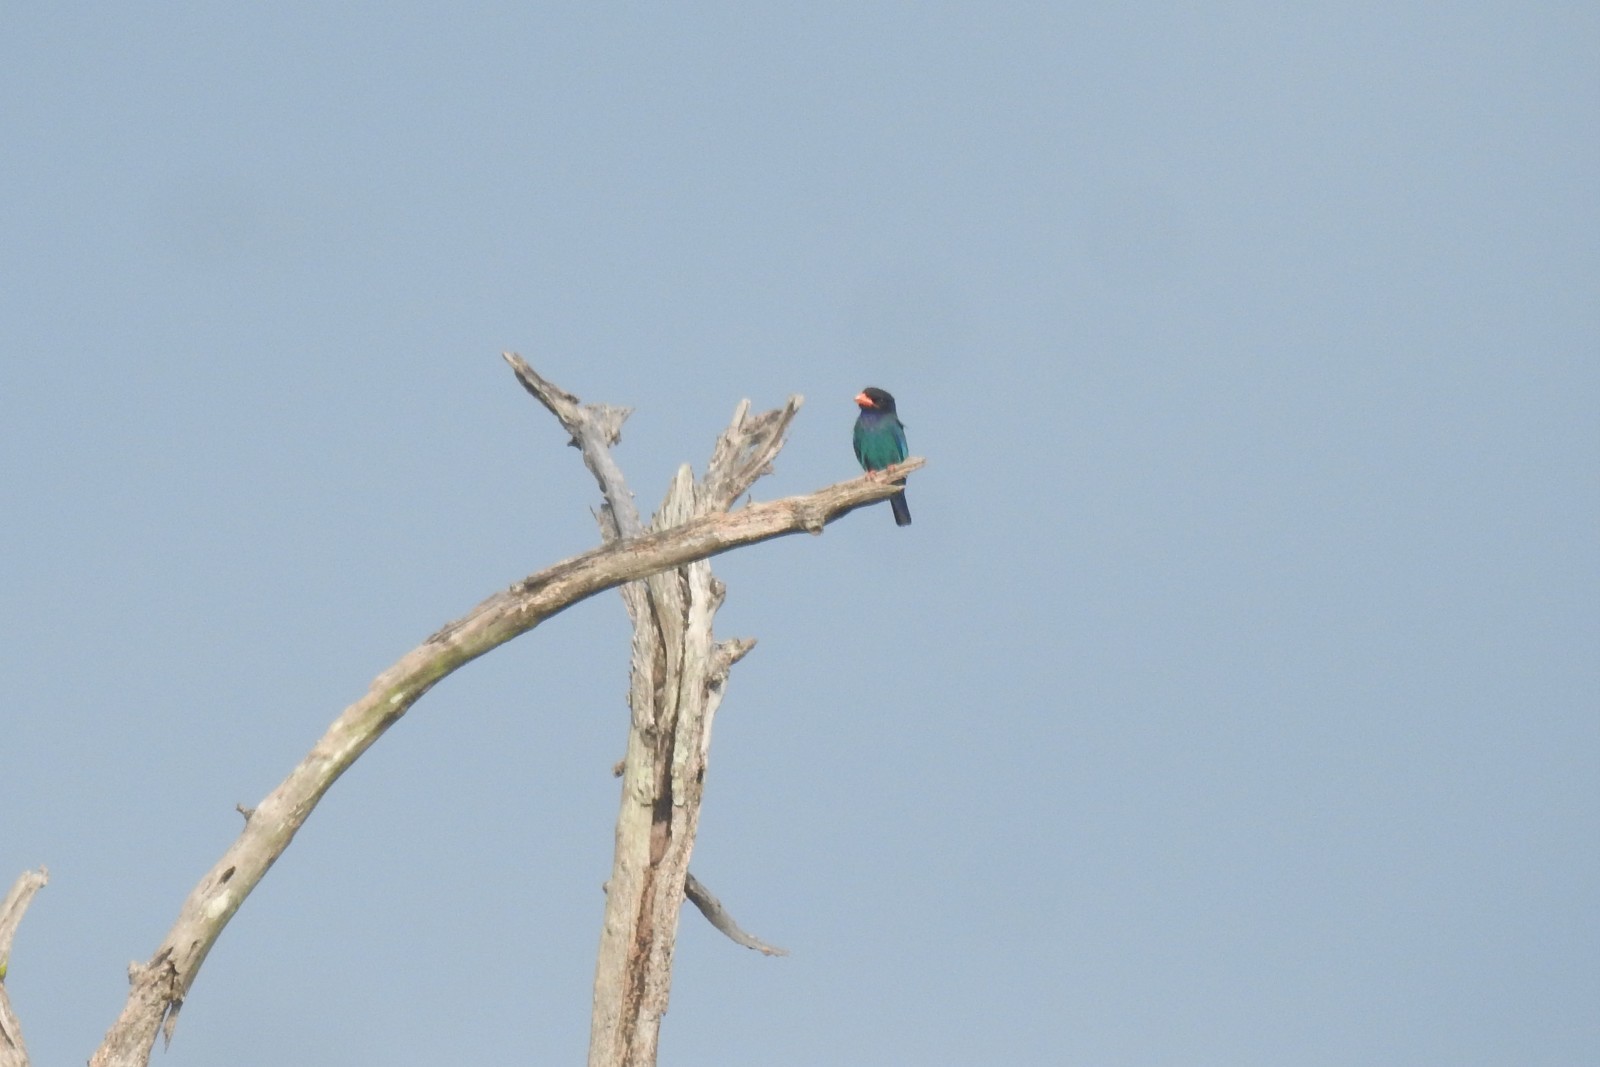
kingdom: Animalia
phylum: Chordata
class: Aves
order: Coraciiformes
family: Coraciidae
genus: Eurystomus
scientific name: Eurystomus orientalis
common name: Oriental dollarbird
